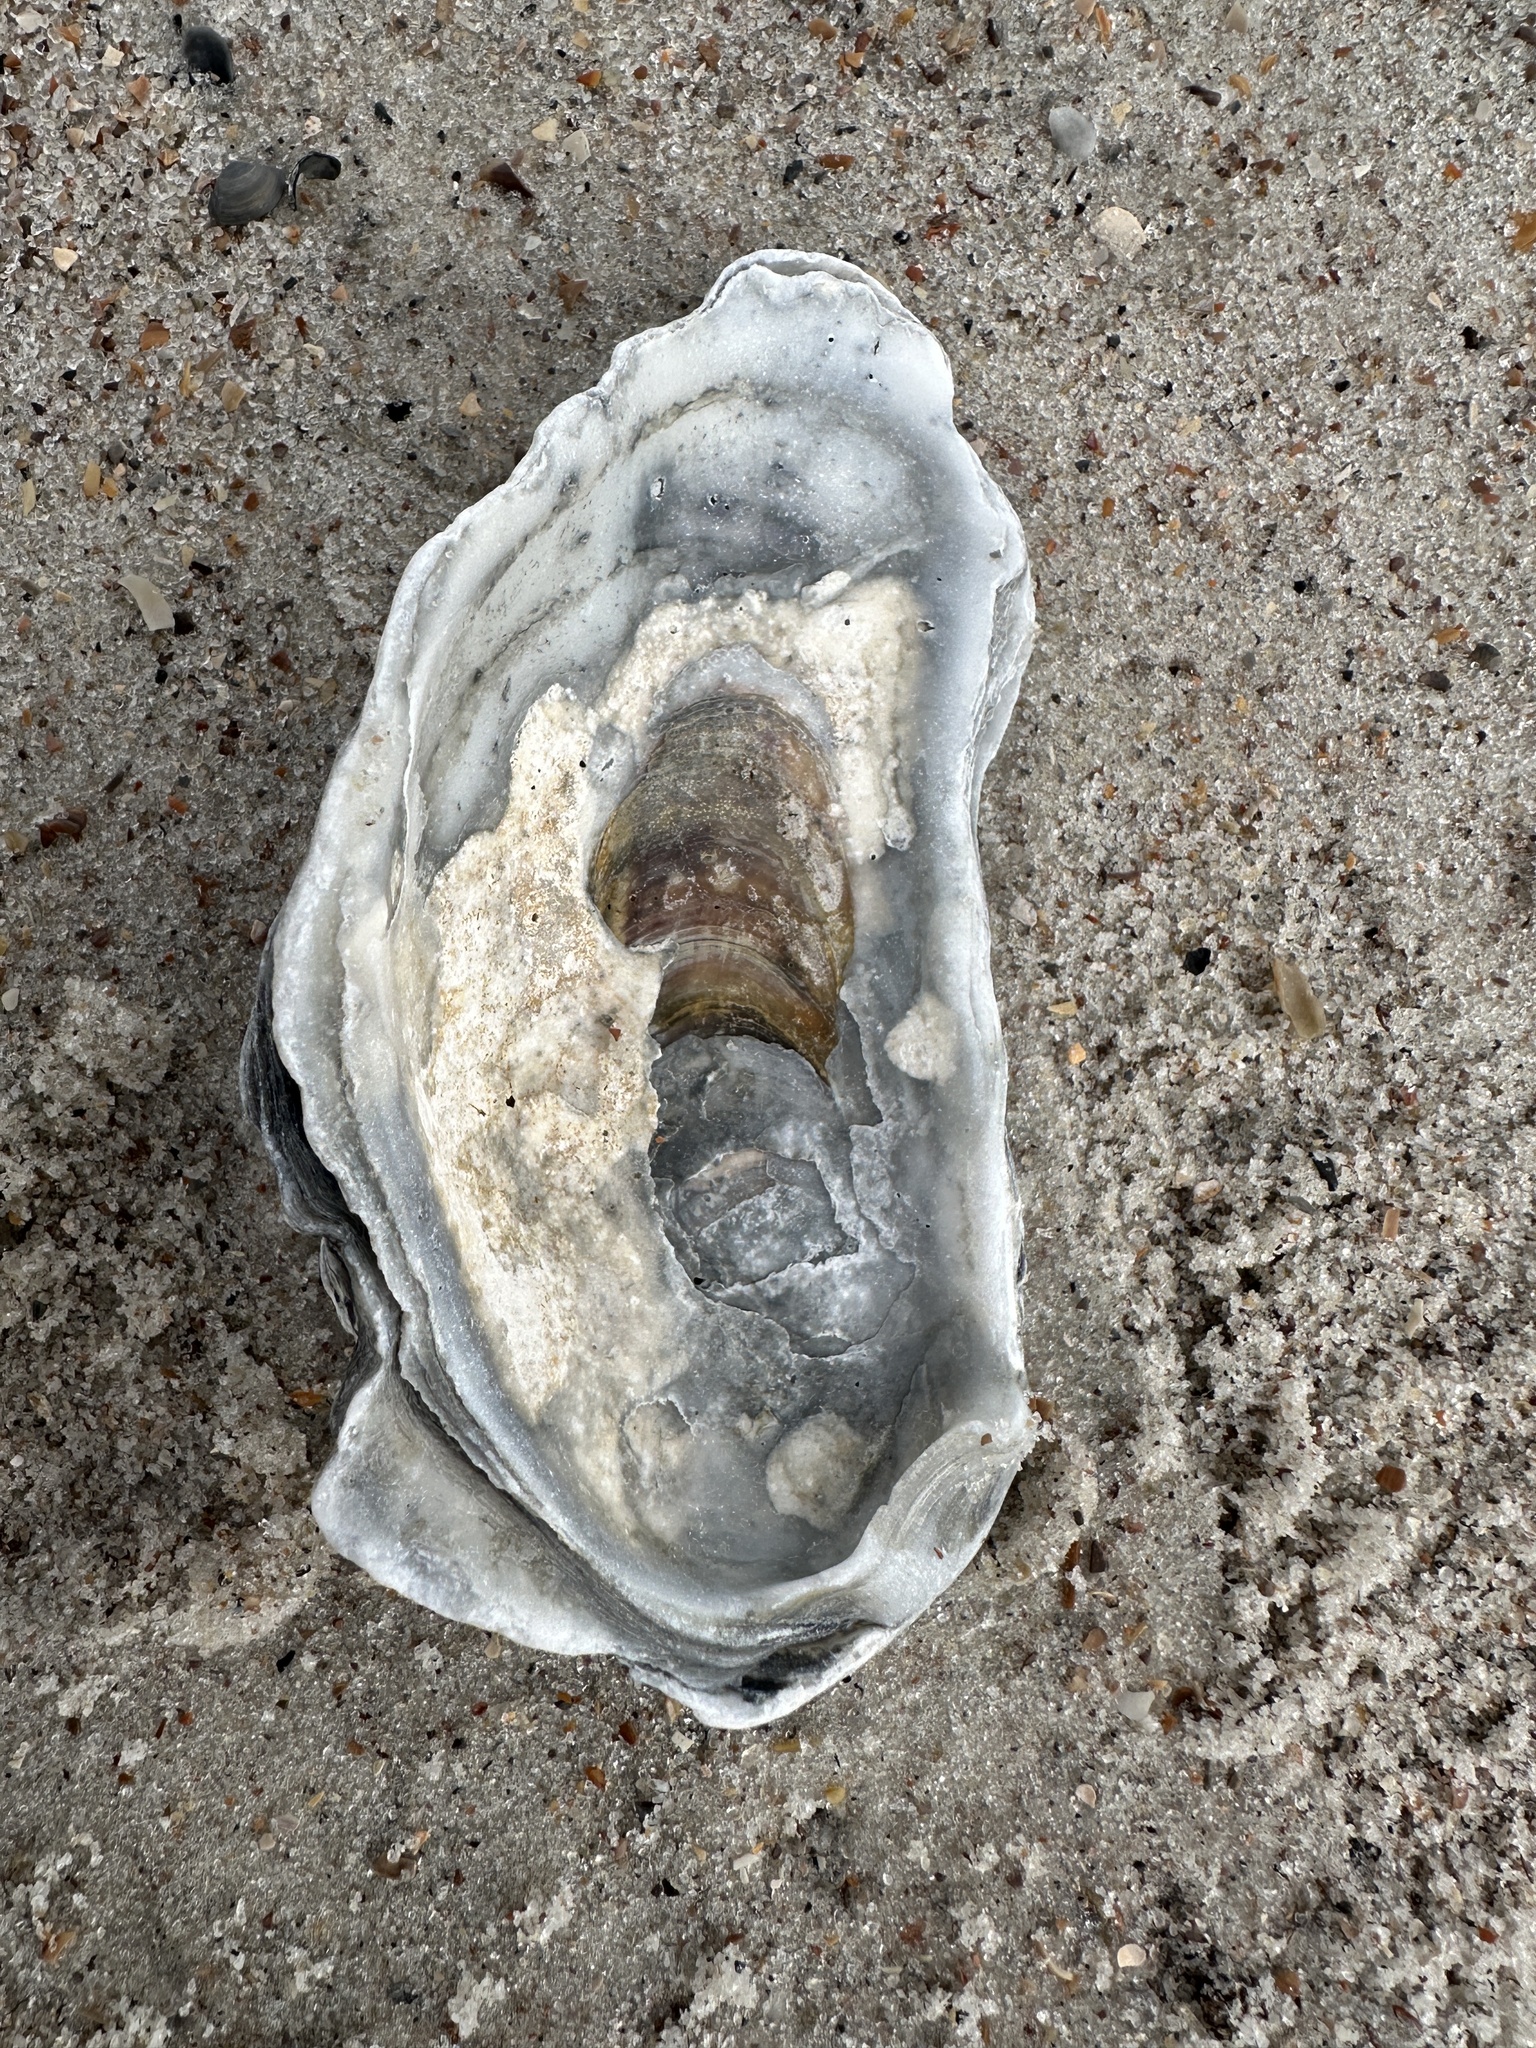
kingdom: Animalia
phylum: Mollusca
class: Bivalvia
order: Ostreida
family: Ostreidae
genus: Crassostrea
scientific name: Crassostrea virginica
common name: American oyster
